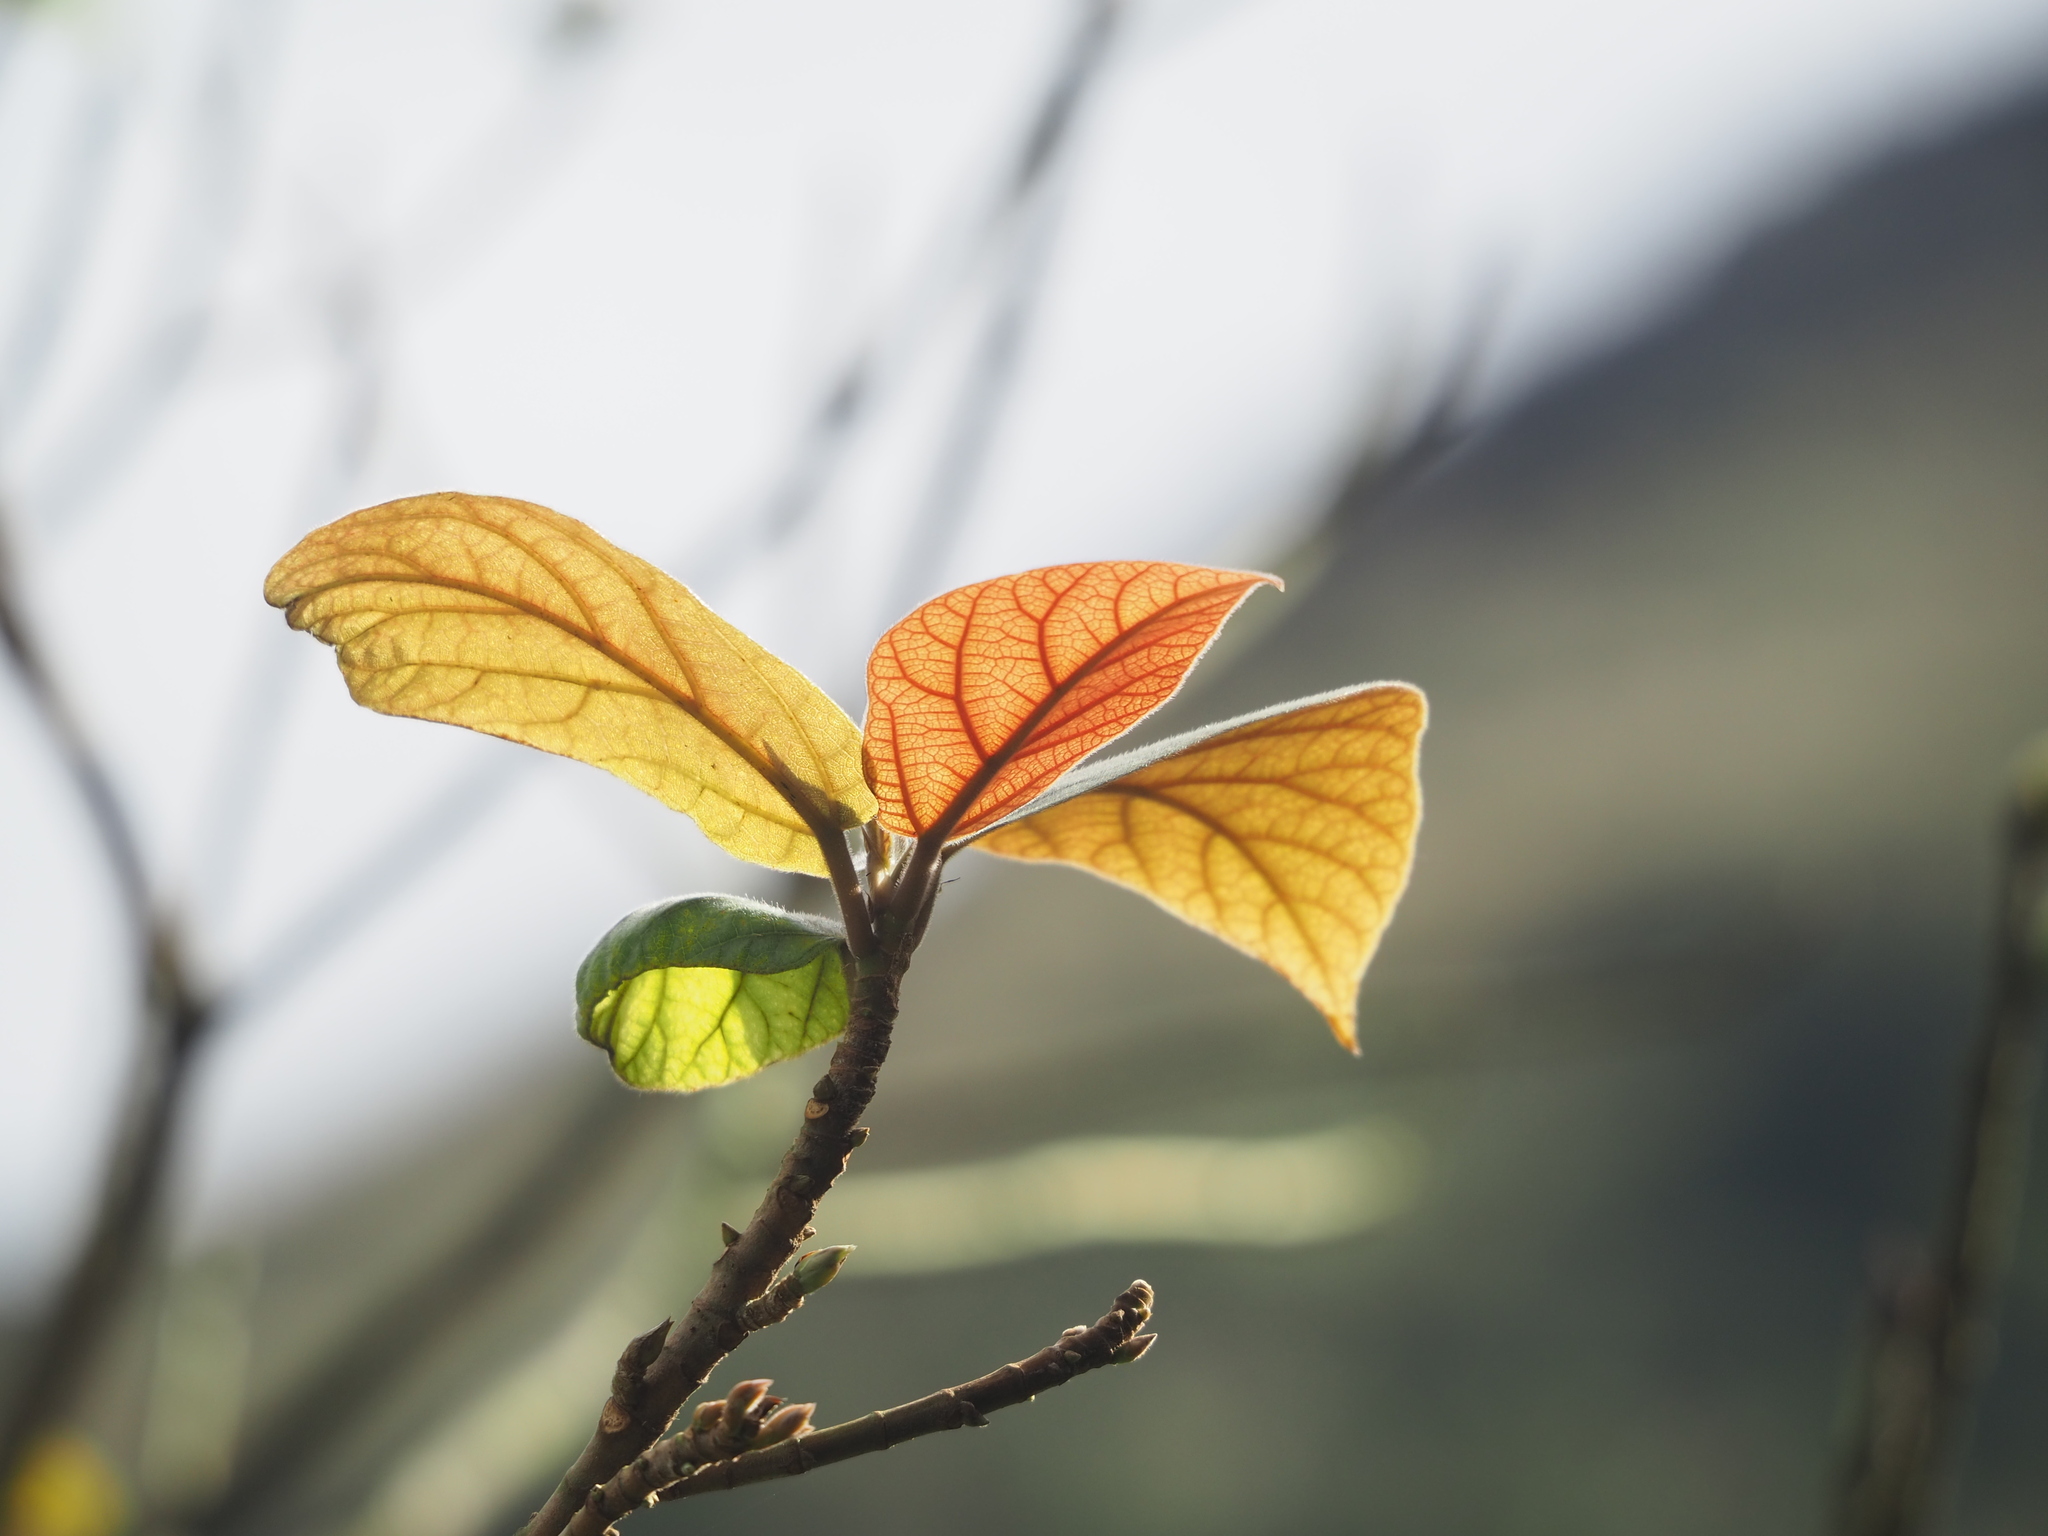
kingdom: Plantae
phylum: Tracheophyta
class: Magnoliopsida
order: Rosales
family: Moraceae
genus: Ficus
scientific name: Ficus erecta
